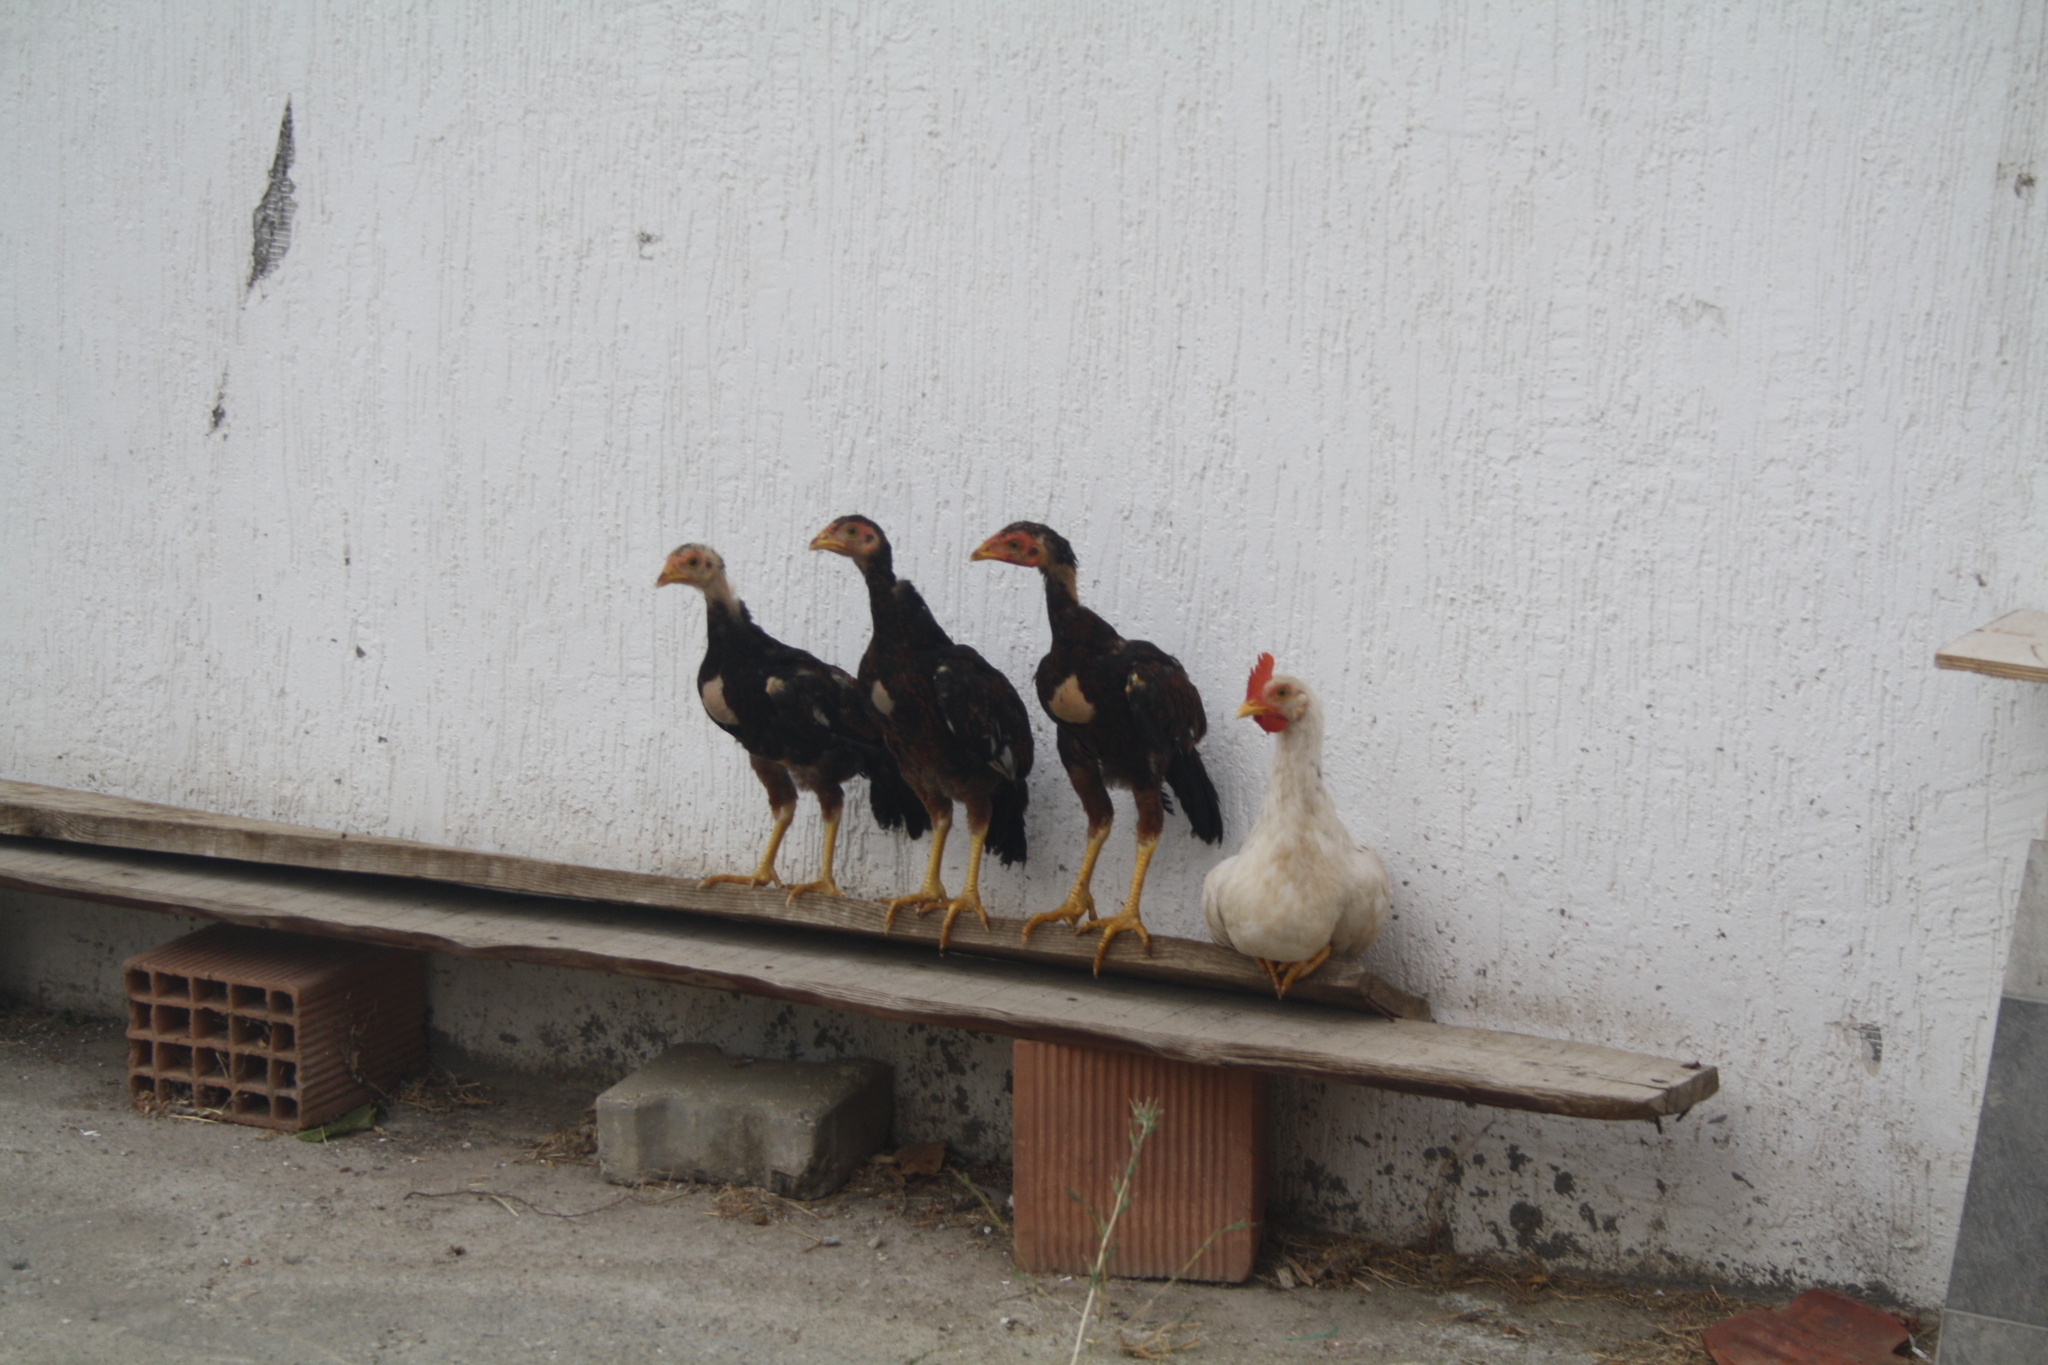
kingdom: Animalia
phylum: Chordata
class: Aves
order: Galliformes
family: Phasianidae
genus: Gallus
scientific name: Gallus gallus
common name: Red junglefowl
